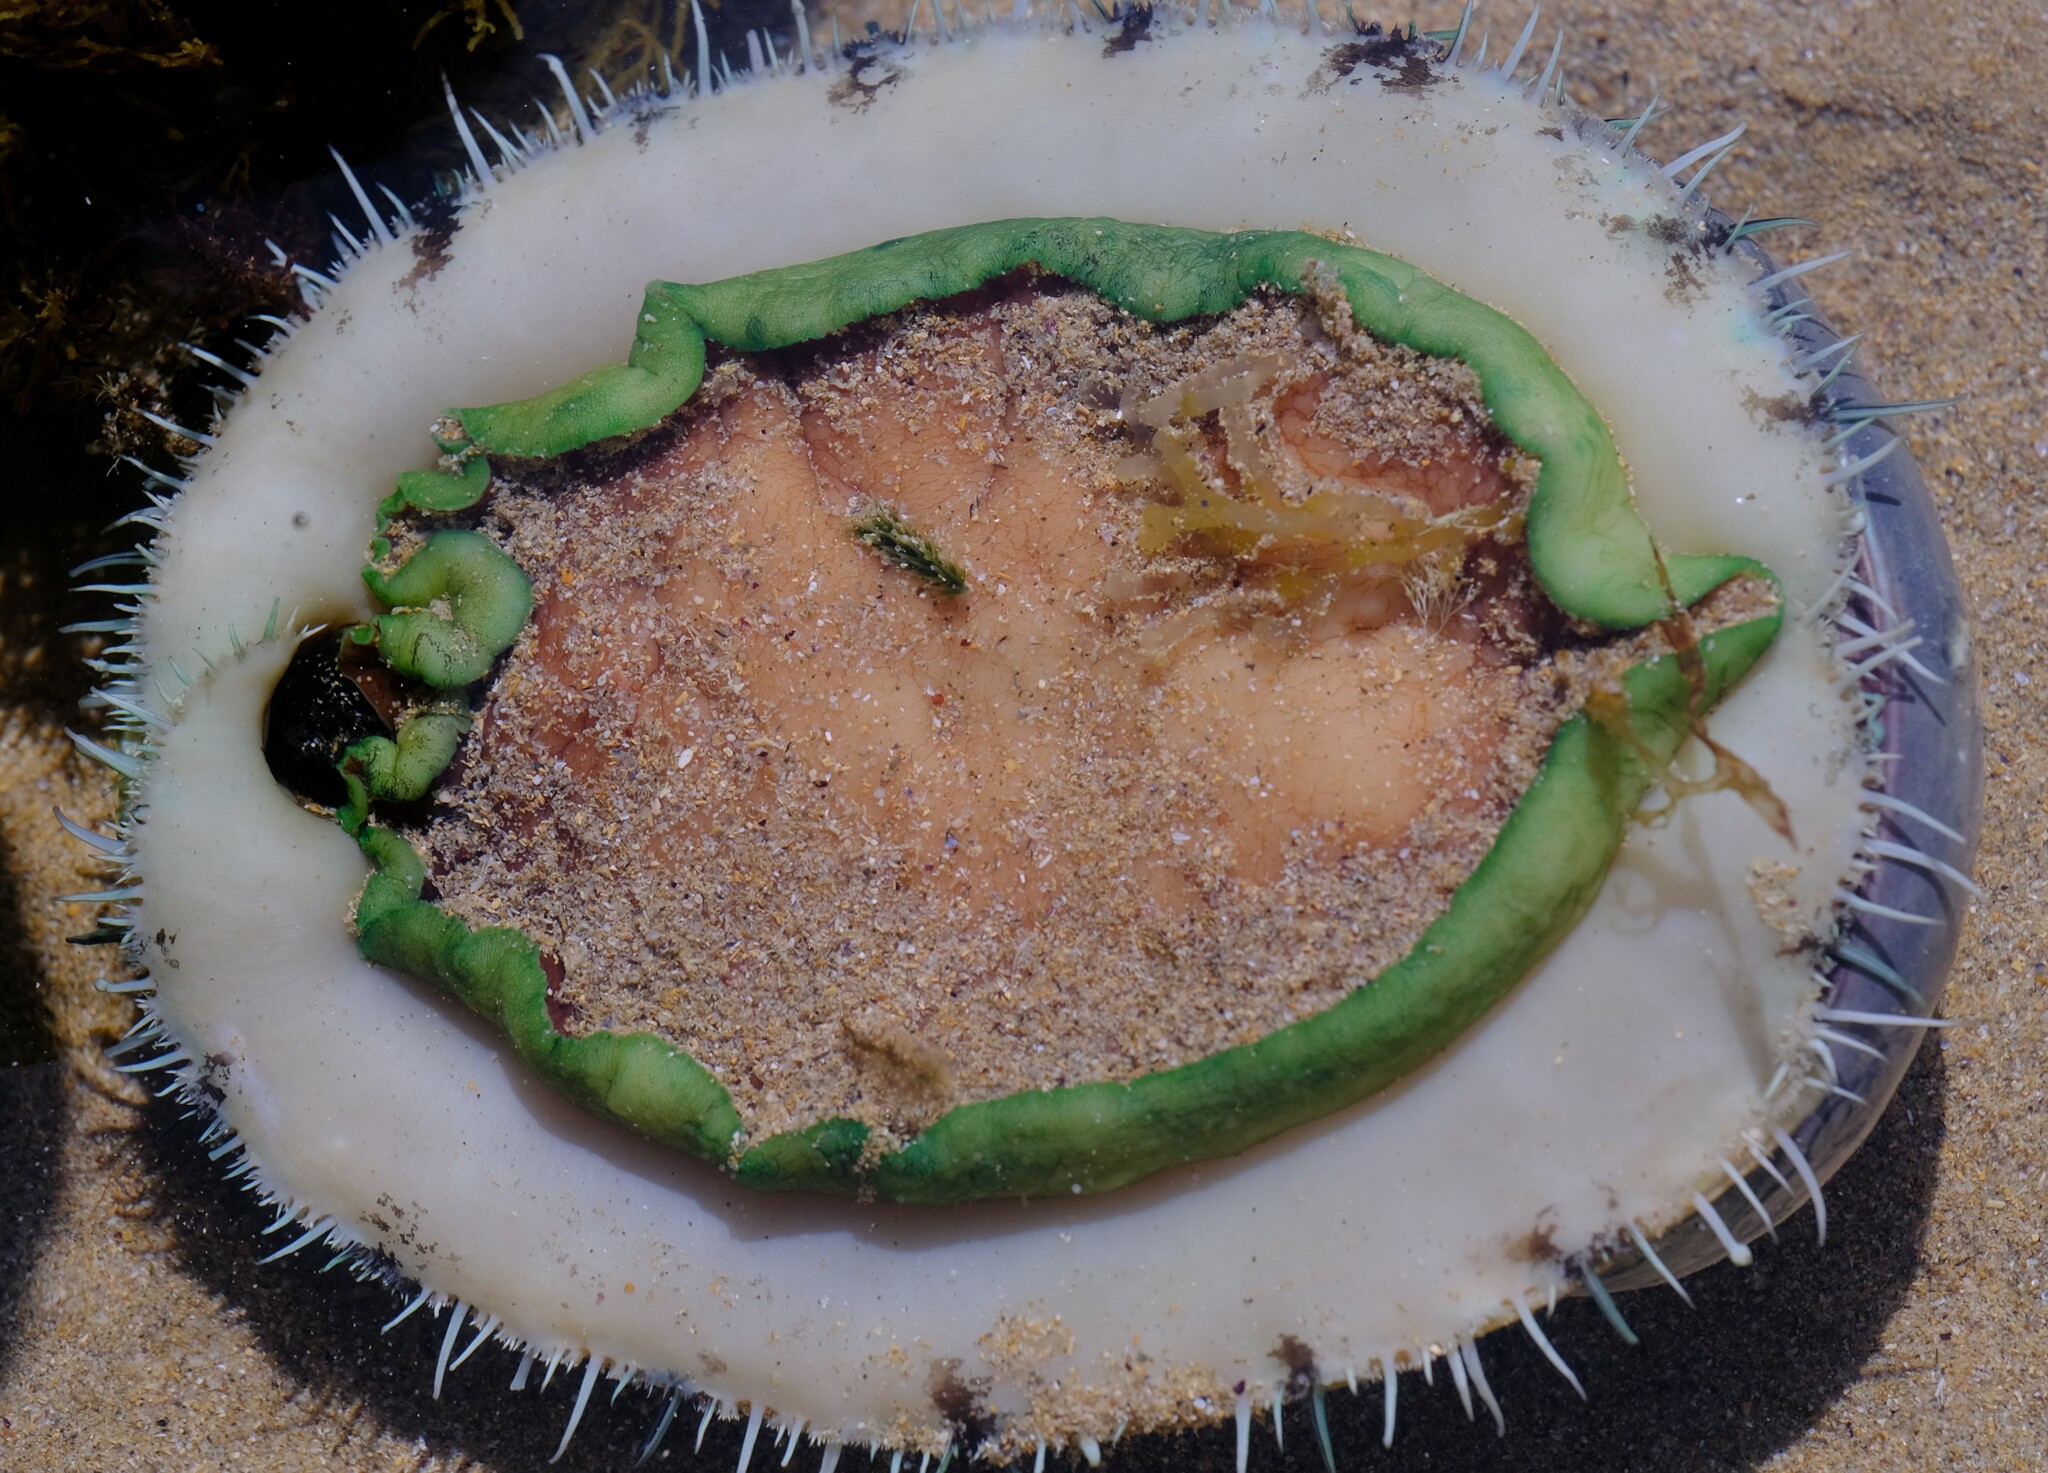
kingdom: Animalia
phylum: Mollusca
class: Gastropoda
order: Lepetellida
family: Haliotidae
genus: Haliotis
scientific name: Haliotis laevigata
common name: Greenlip abalone
